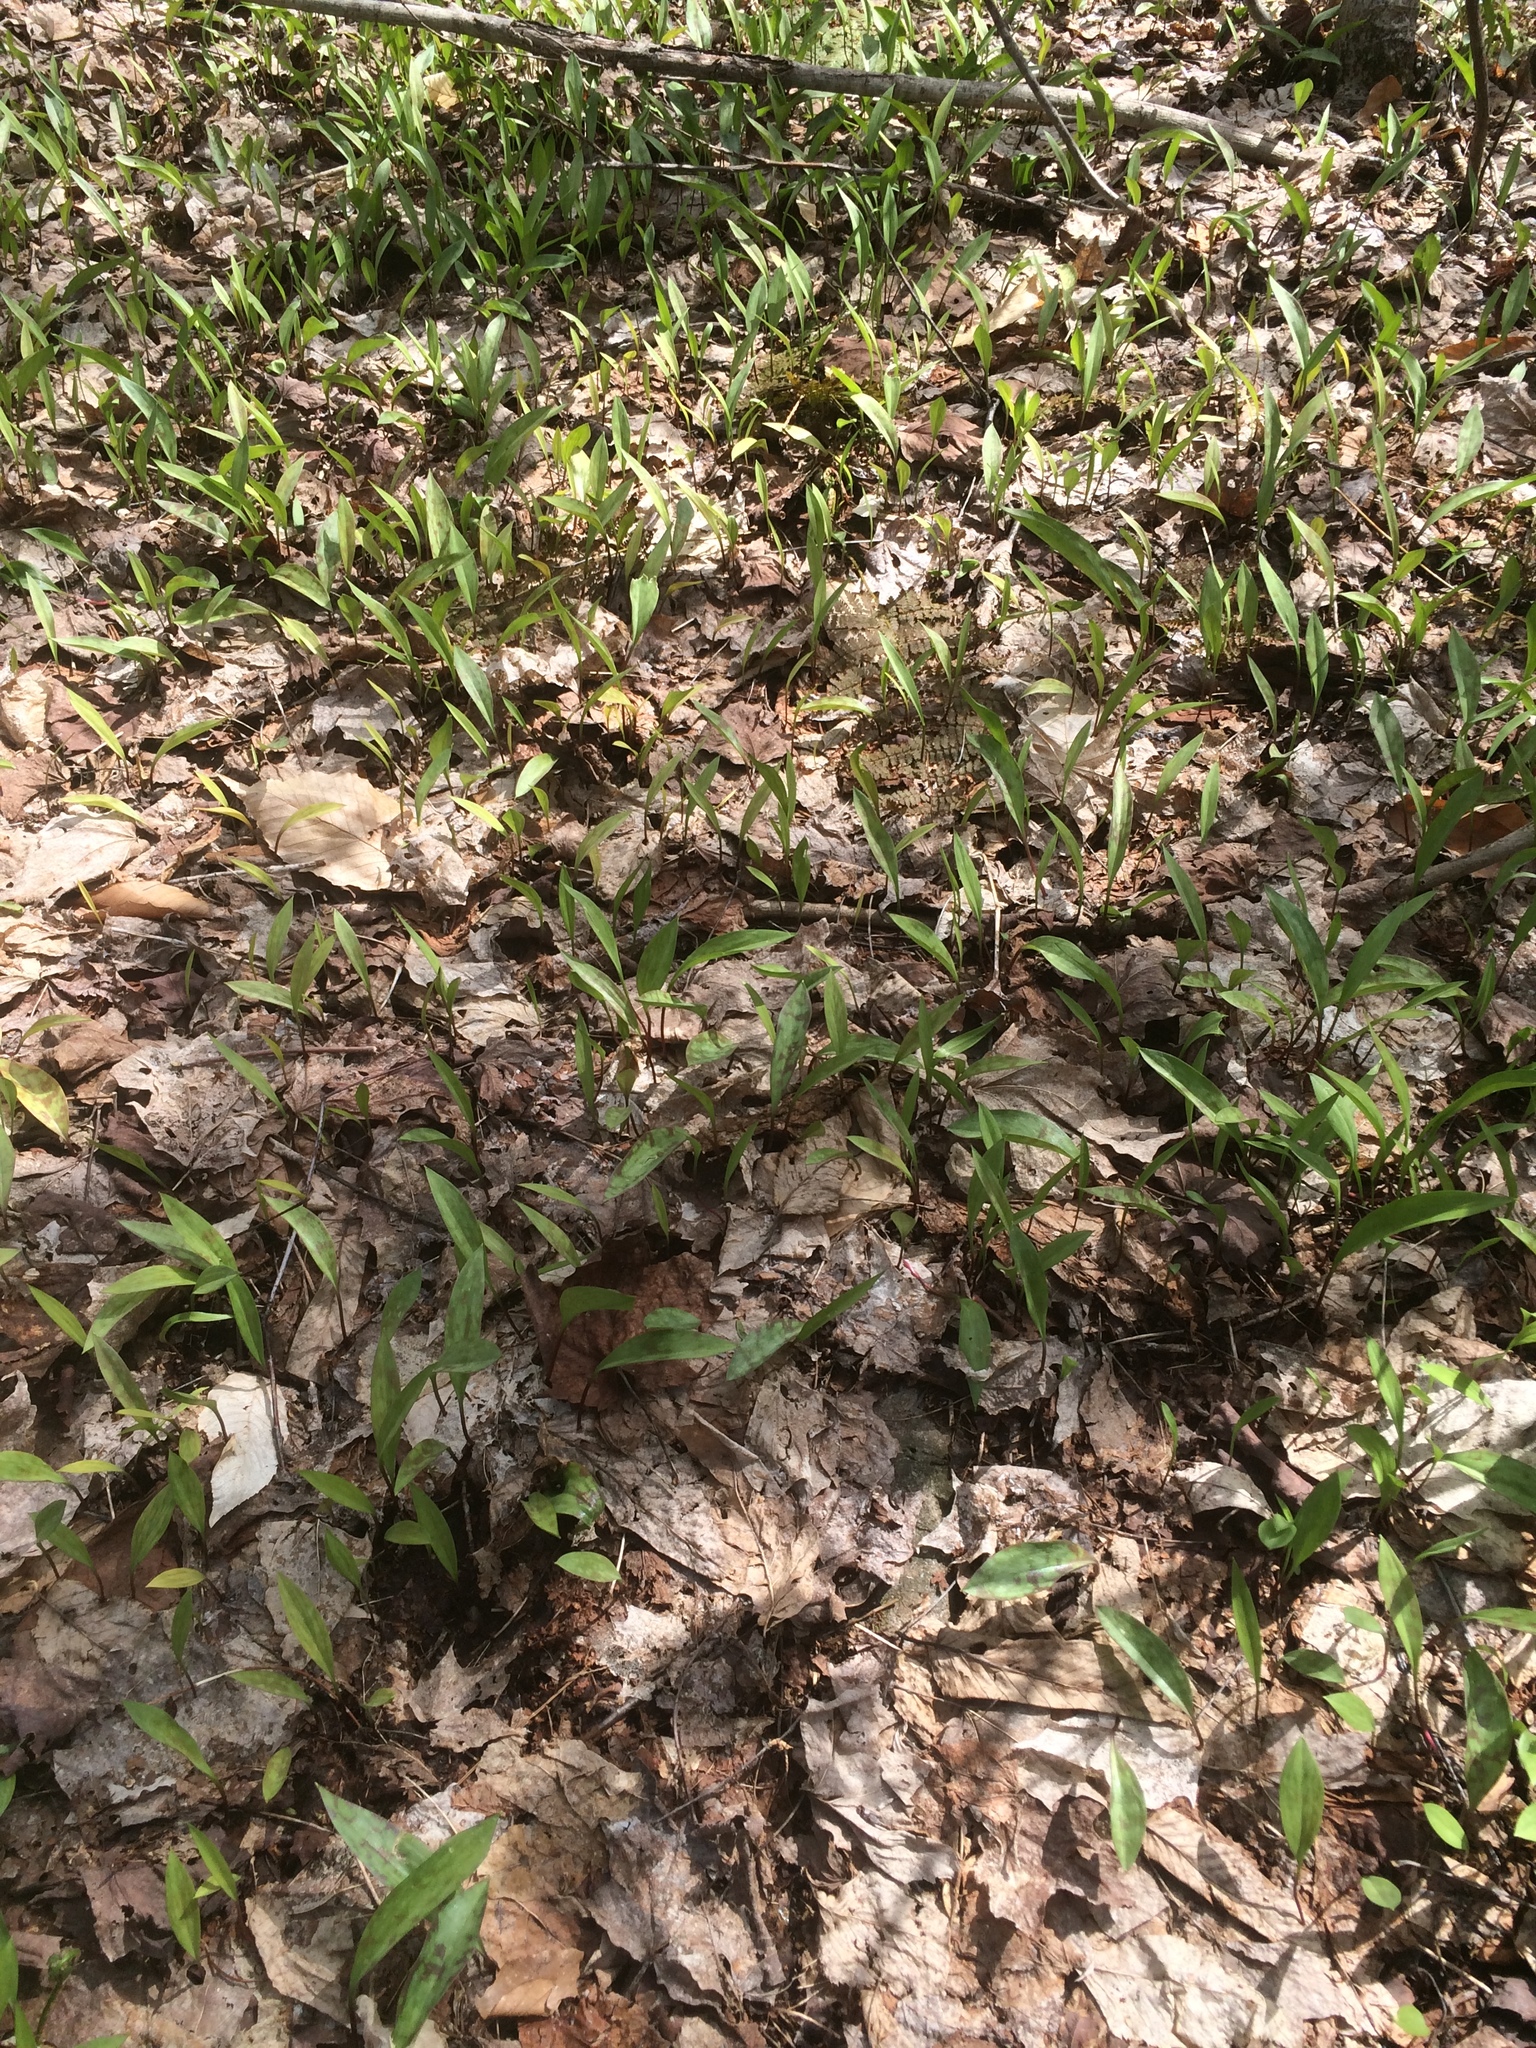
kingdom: Plantae
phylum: Tracheophyta
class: Liliopsida
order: Liliales
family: Liliaceae
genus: Erythronium
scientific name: Erythronium americanum
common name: Yellow adder's-tongue
